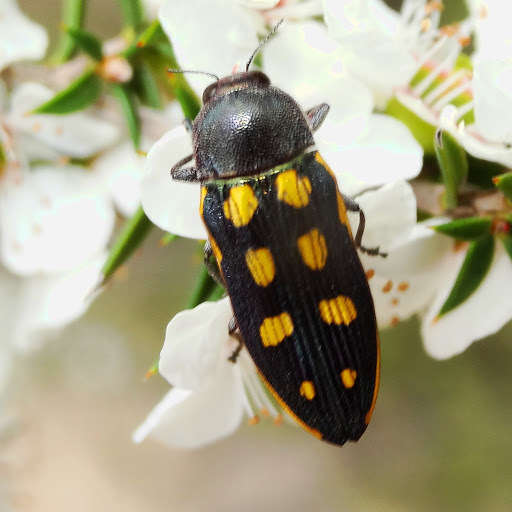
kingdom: Animalia
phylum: Arthropoda
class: Insecta
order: Coleoptera
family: Buprestidae
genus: Castiarina
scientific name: Castiarina xanthopilosa
